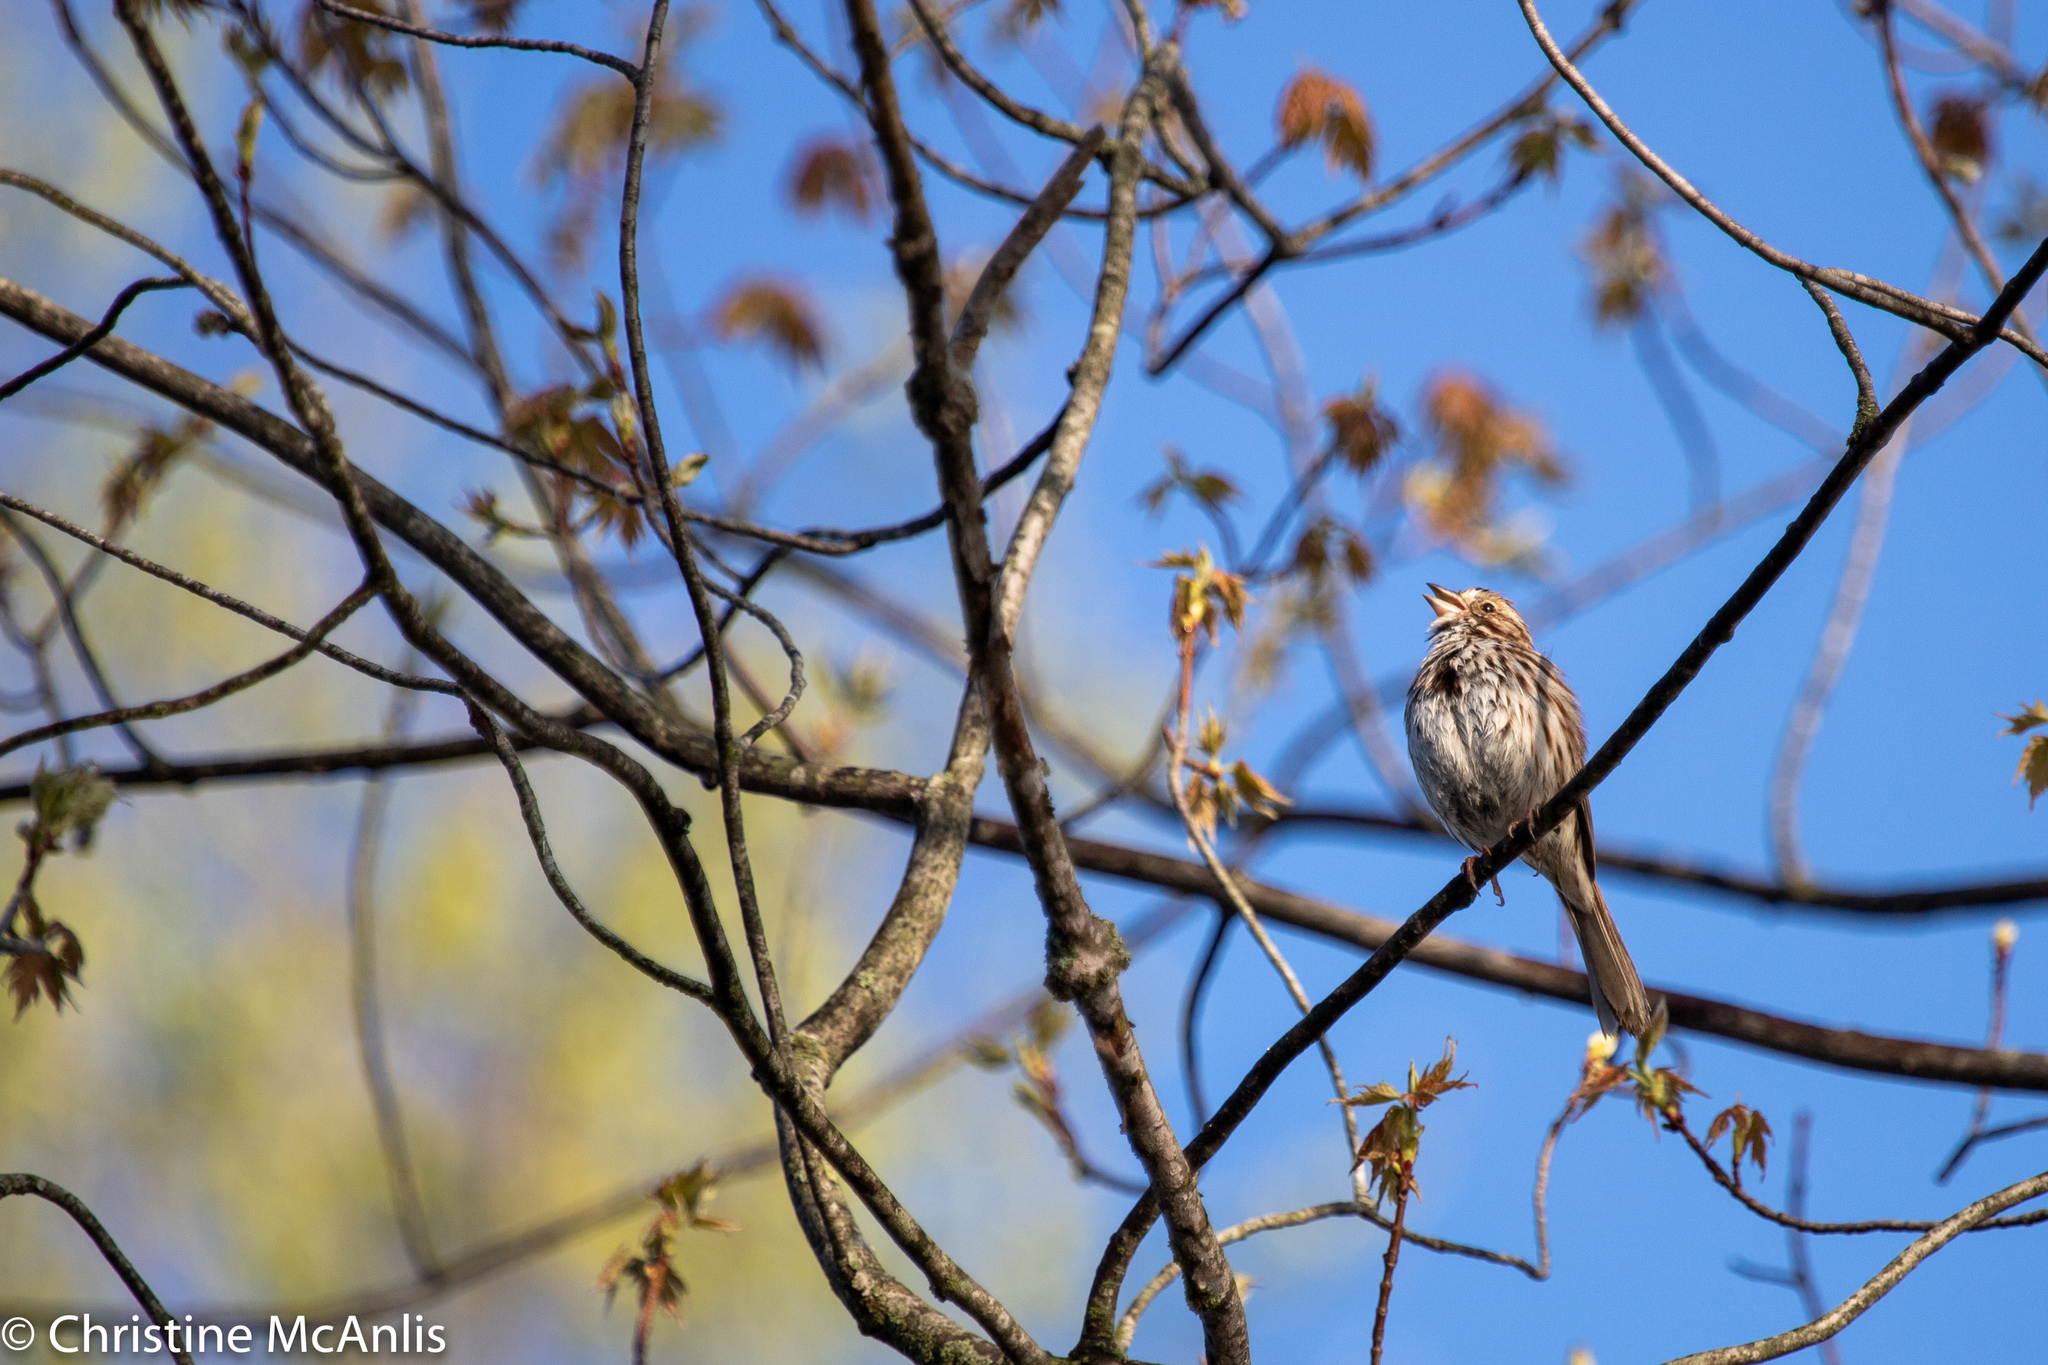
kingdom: Animalia
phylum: Chordata
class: Aves
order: Passeriformes
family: Passerellidae
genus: Melospiza
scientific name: Melospiza melodia
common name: Song sparrow
